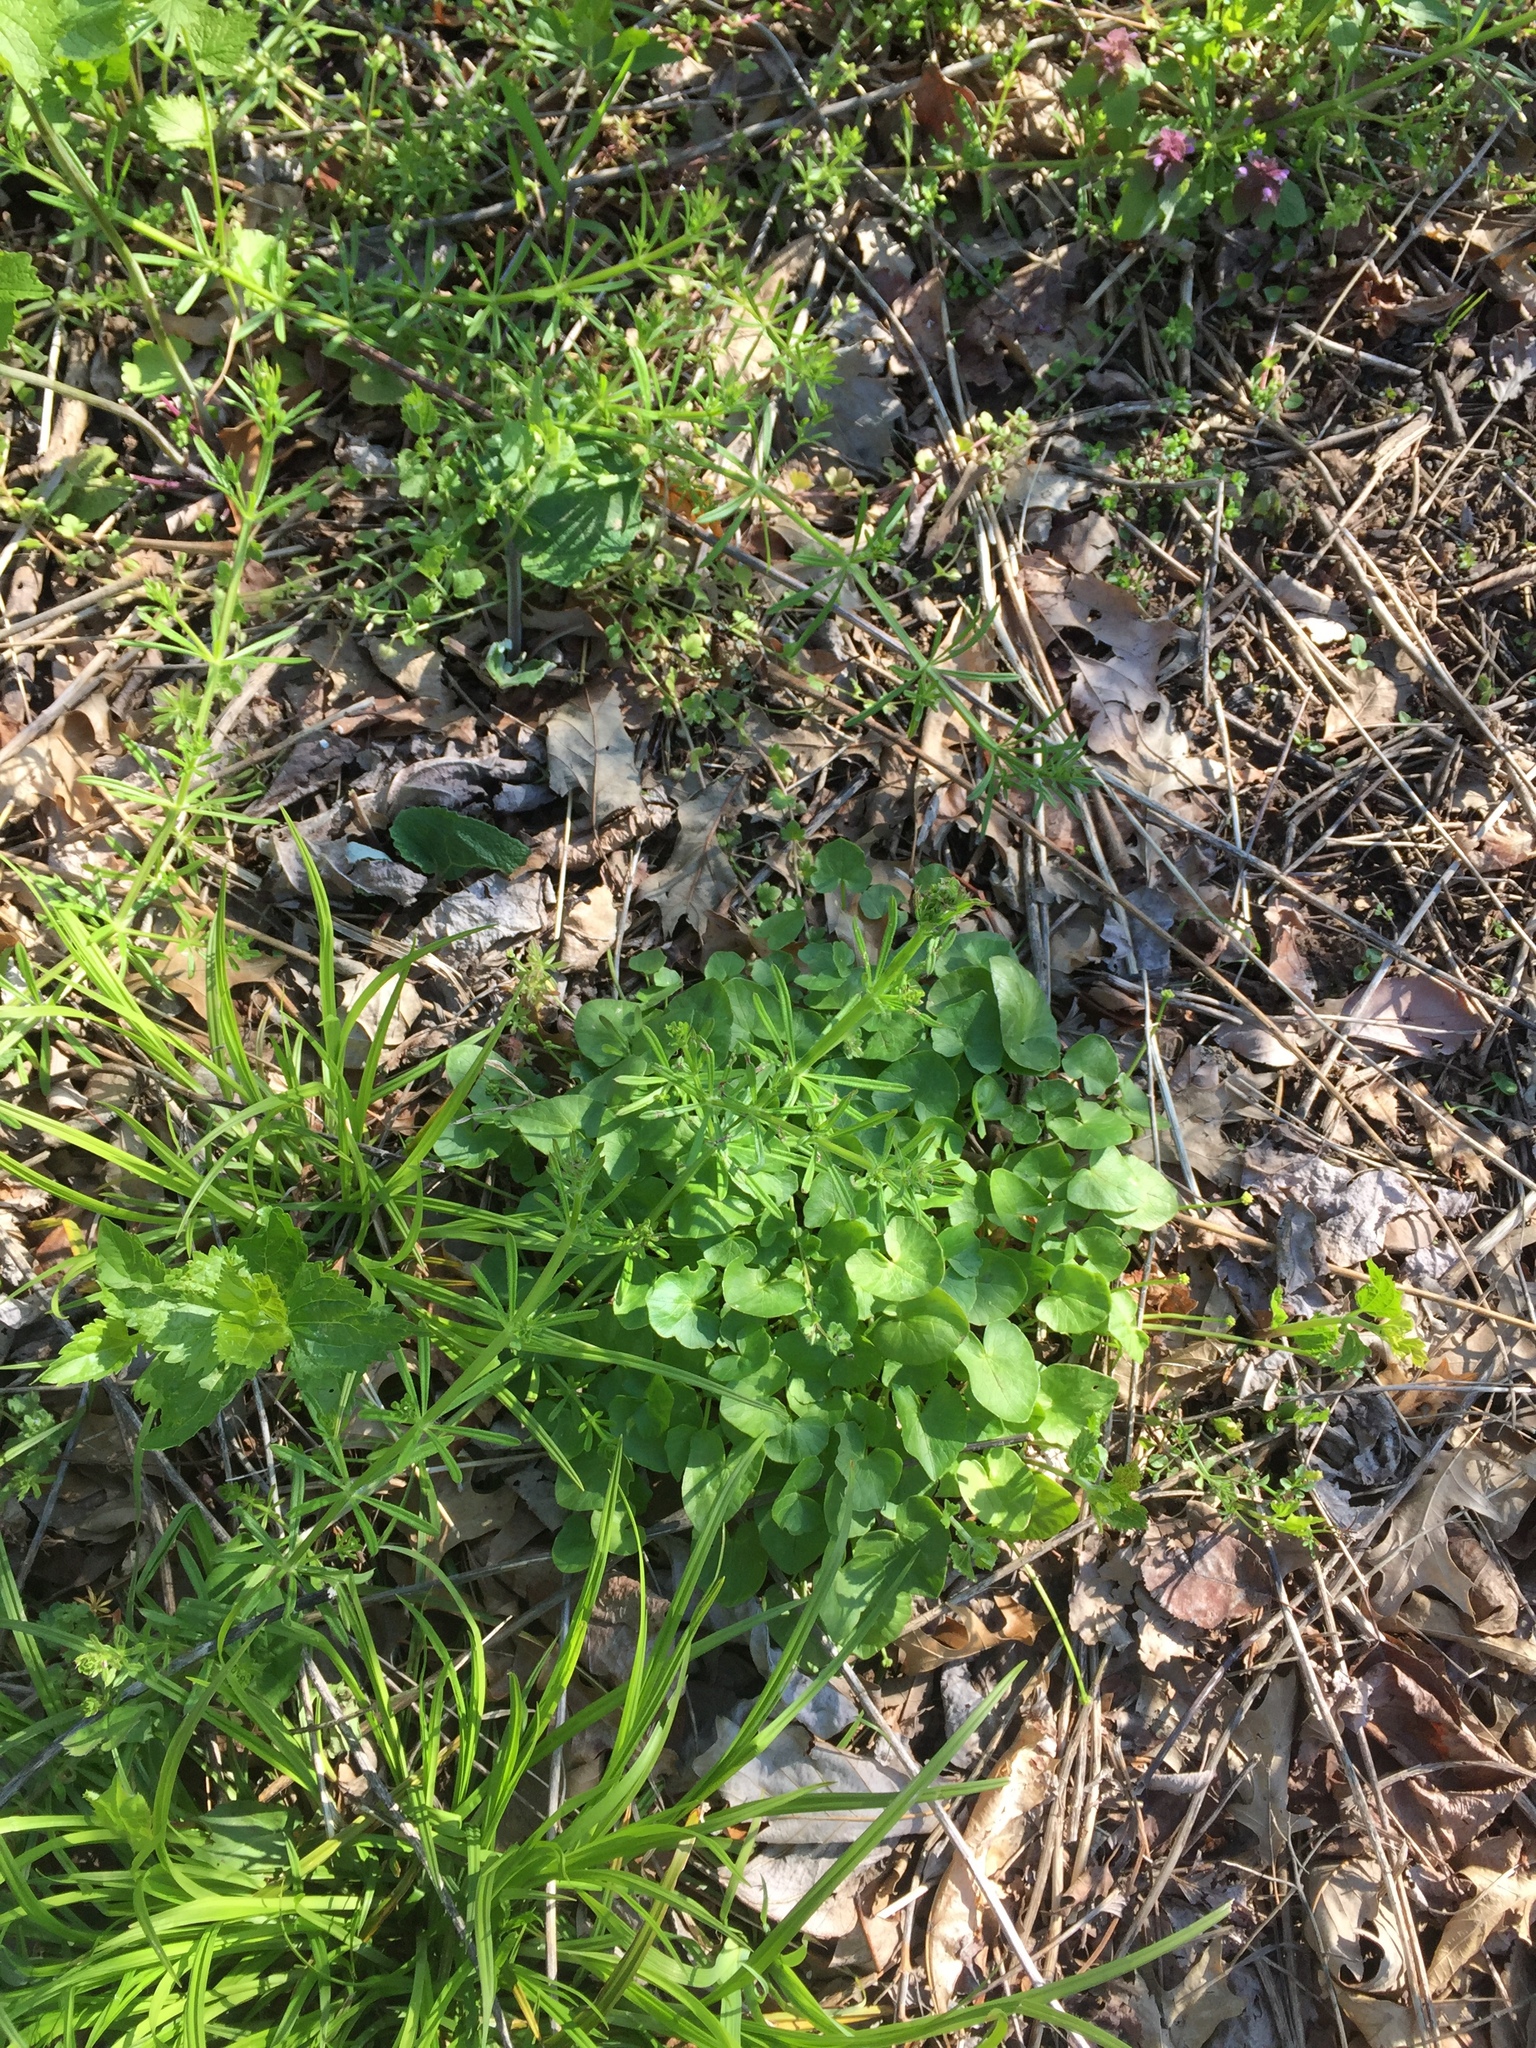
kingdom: Plantae
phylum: Tracheophyta
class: Magnoliopsida
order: Ranunculales
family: Ranunculaceae
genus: Ficaria
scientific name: Ficaria verna
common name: Lesser celandine
